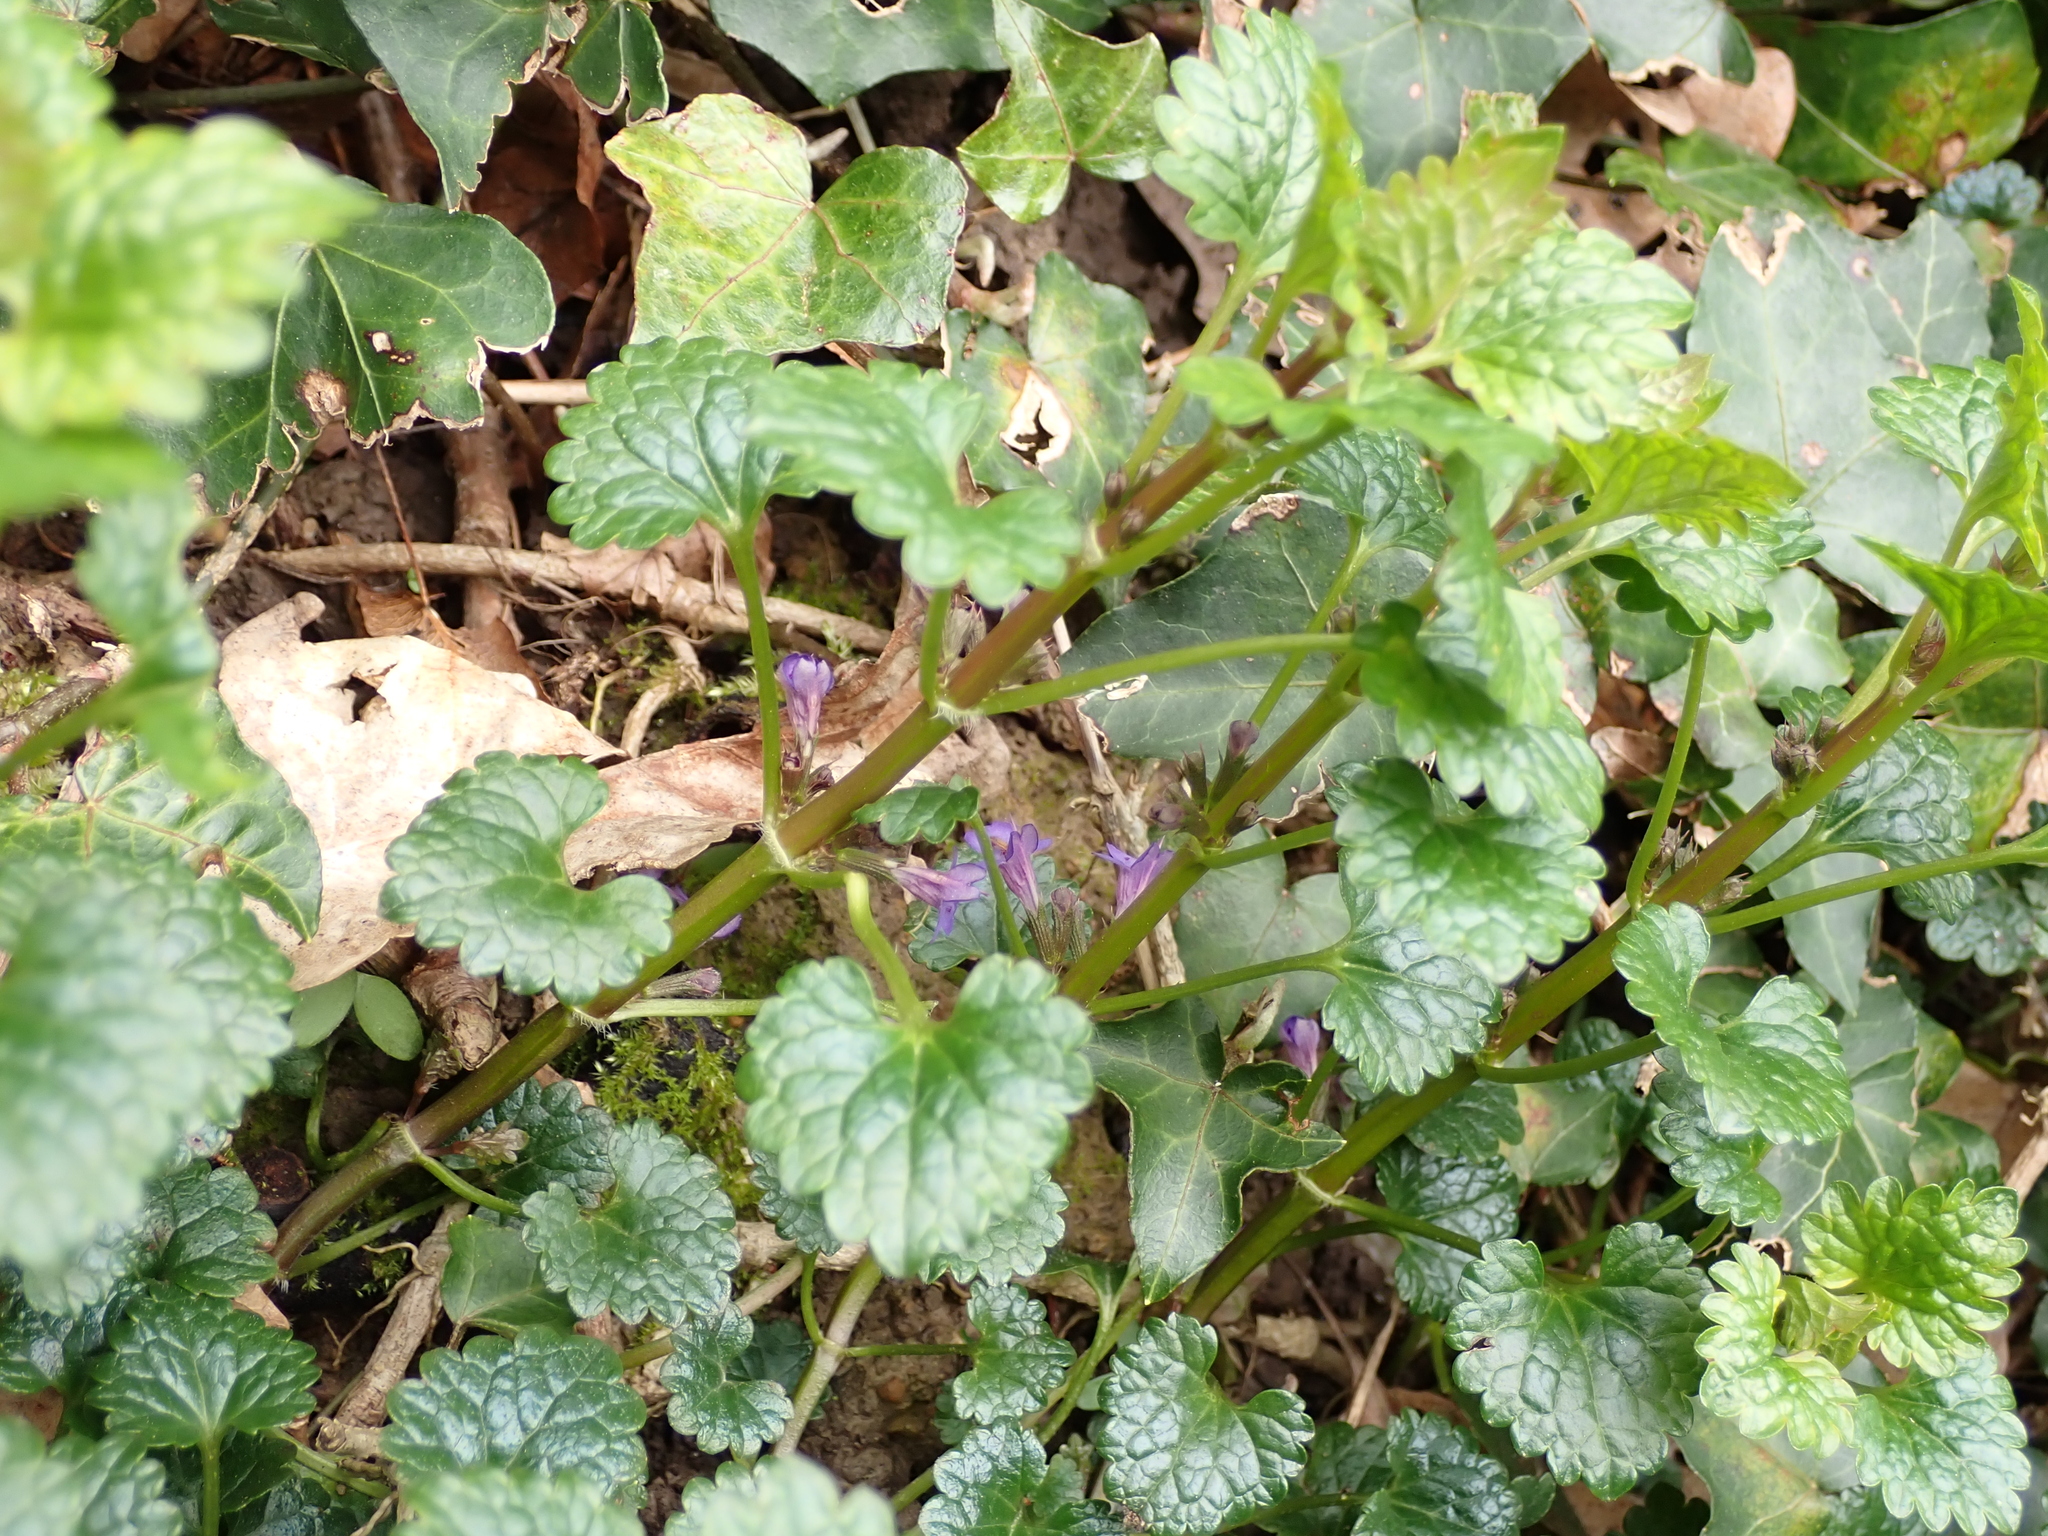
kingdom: Plantae
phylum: Tracheophyta
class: Magnoliopsida
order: Lamiales
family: Lamiaceae
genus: Glechoma
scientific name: Glechoma hederacea
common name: Ground ivy
